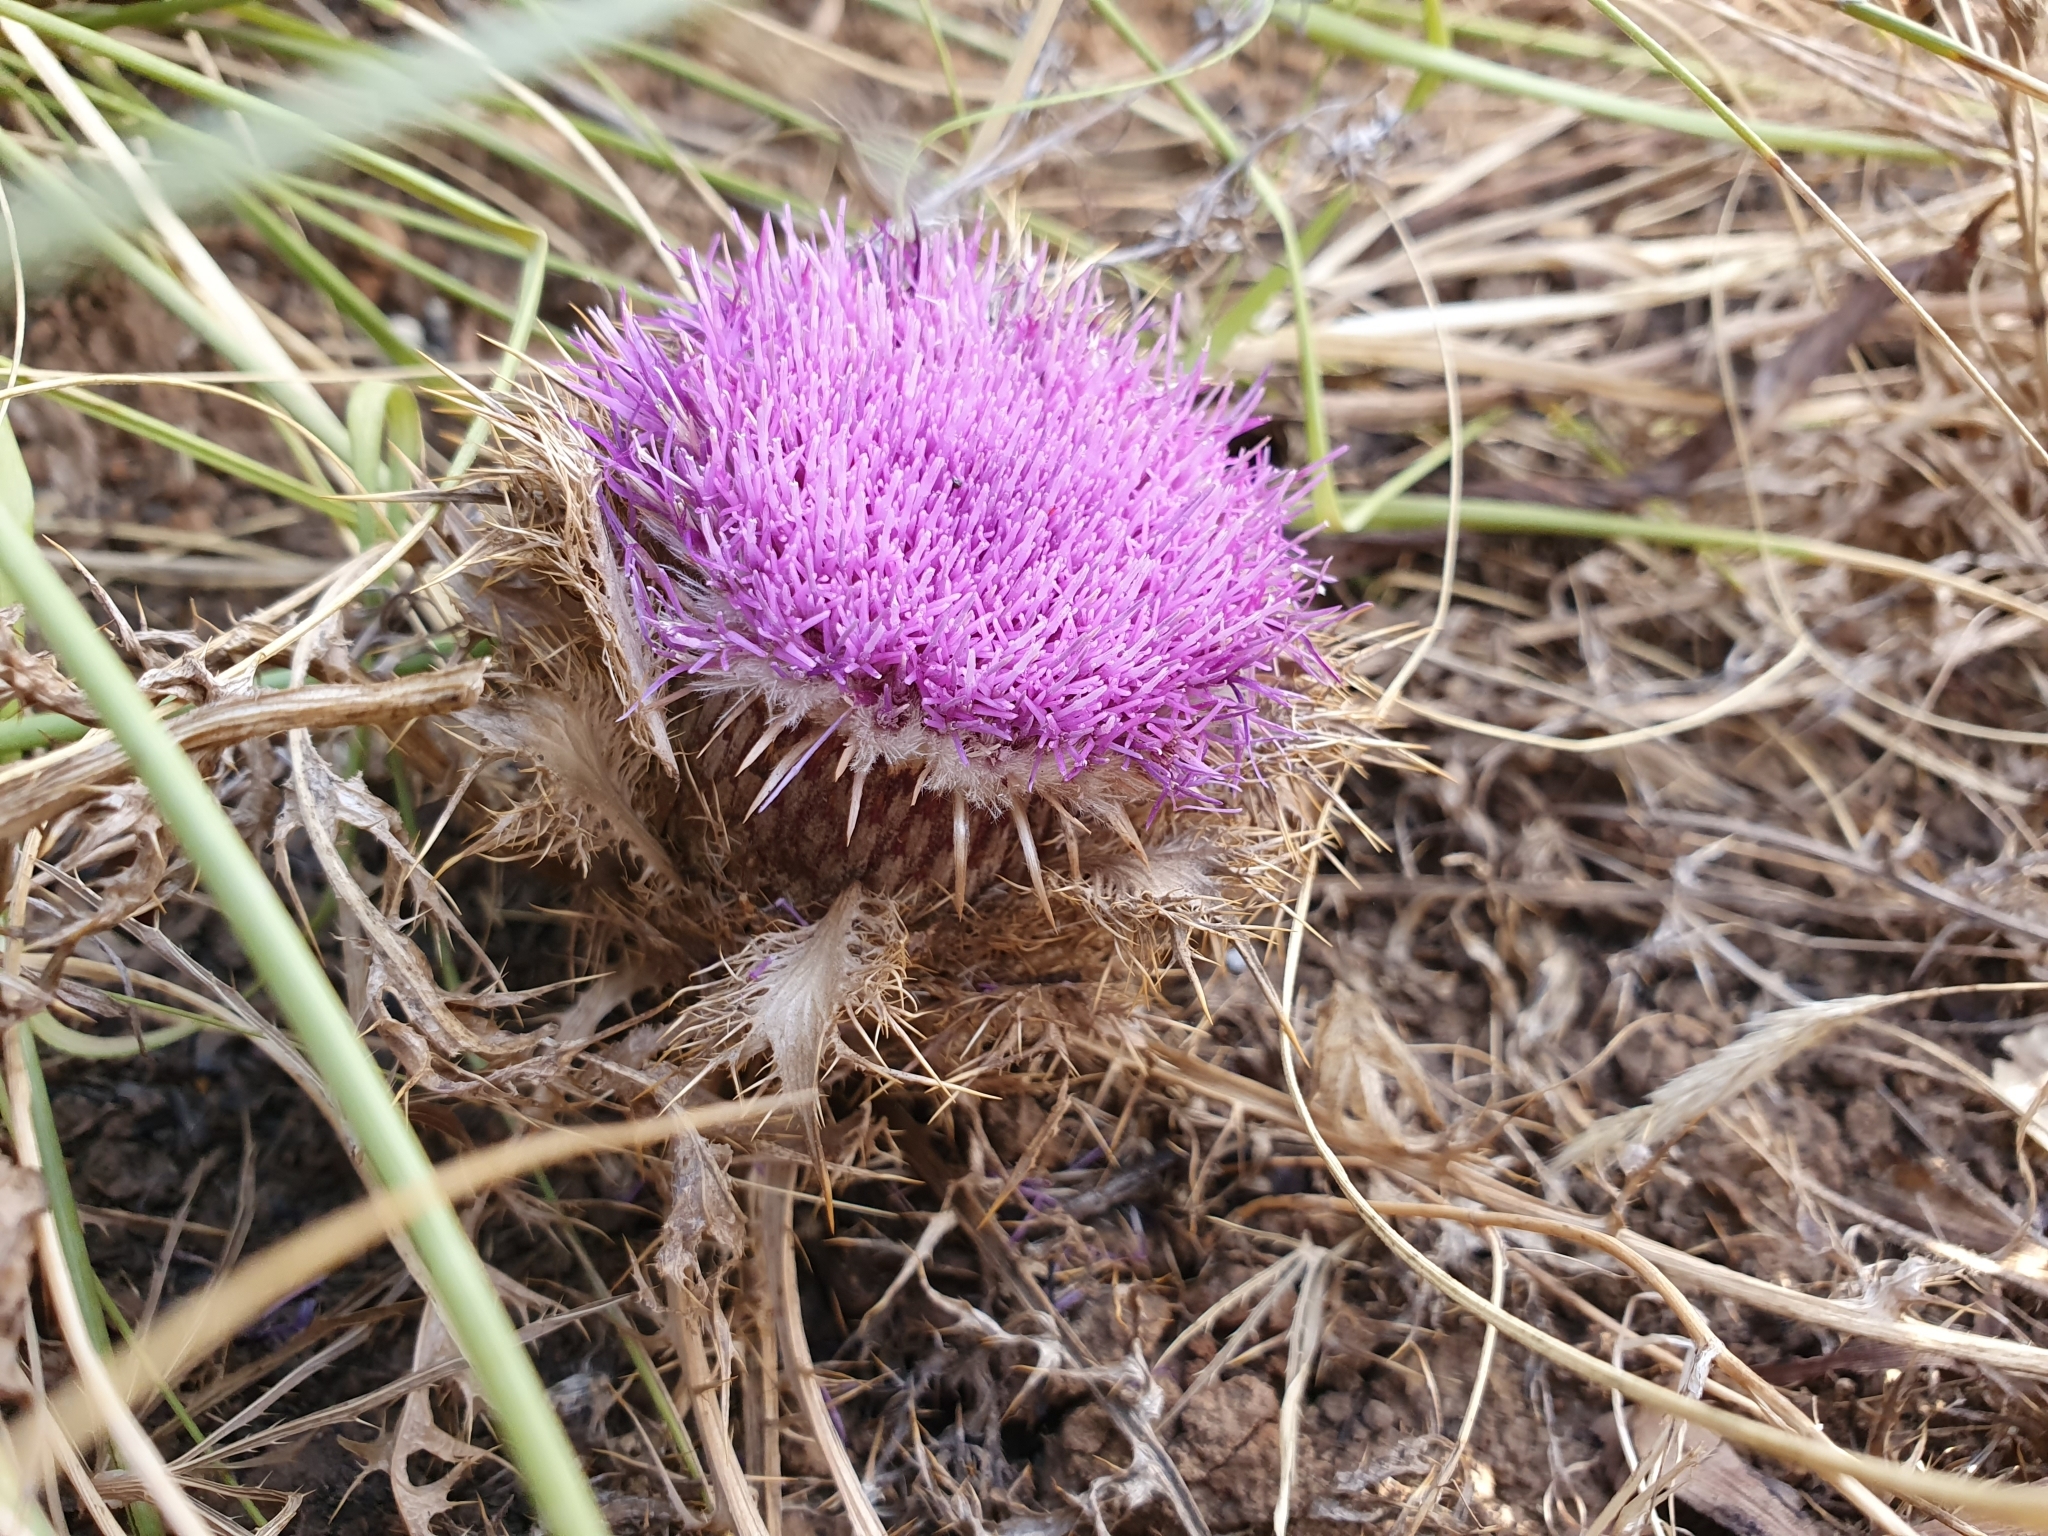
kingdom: Plantae
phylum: Tracheophyta
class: Magnoliopsida
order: Asterales
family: Asteraceae
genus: Chamaeleon
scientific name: Chamaeleon gummifer
